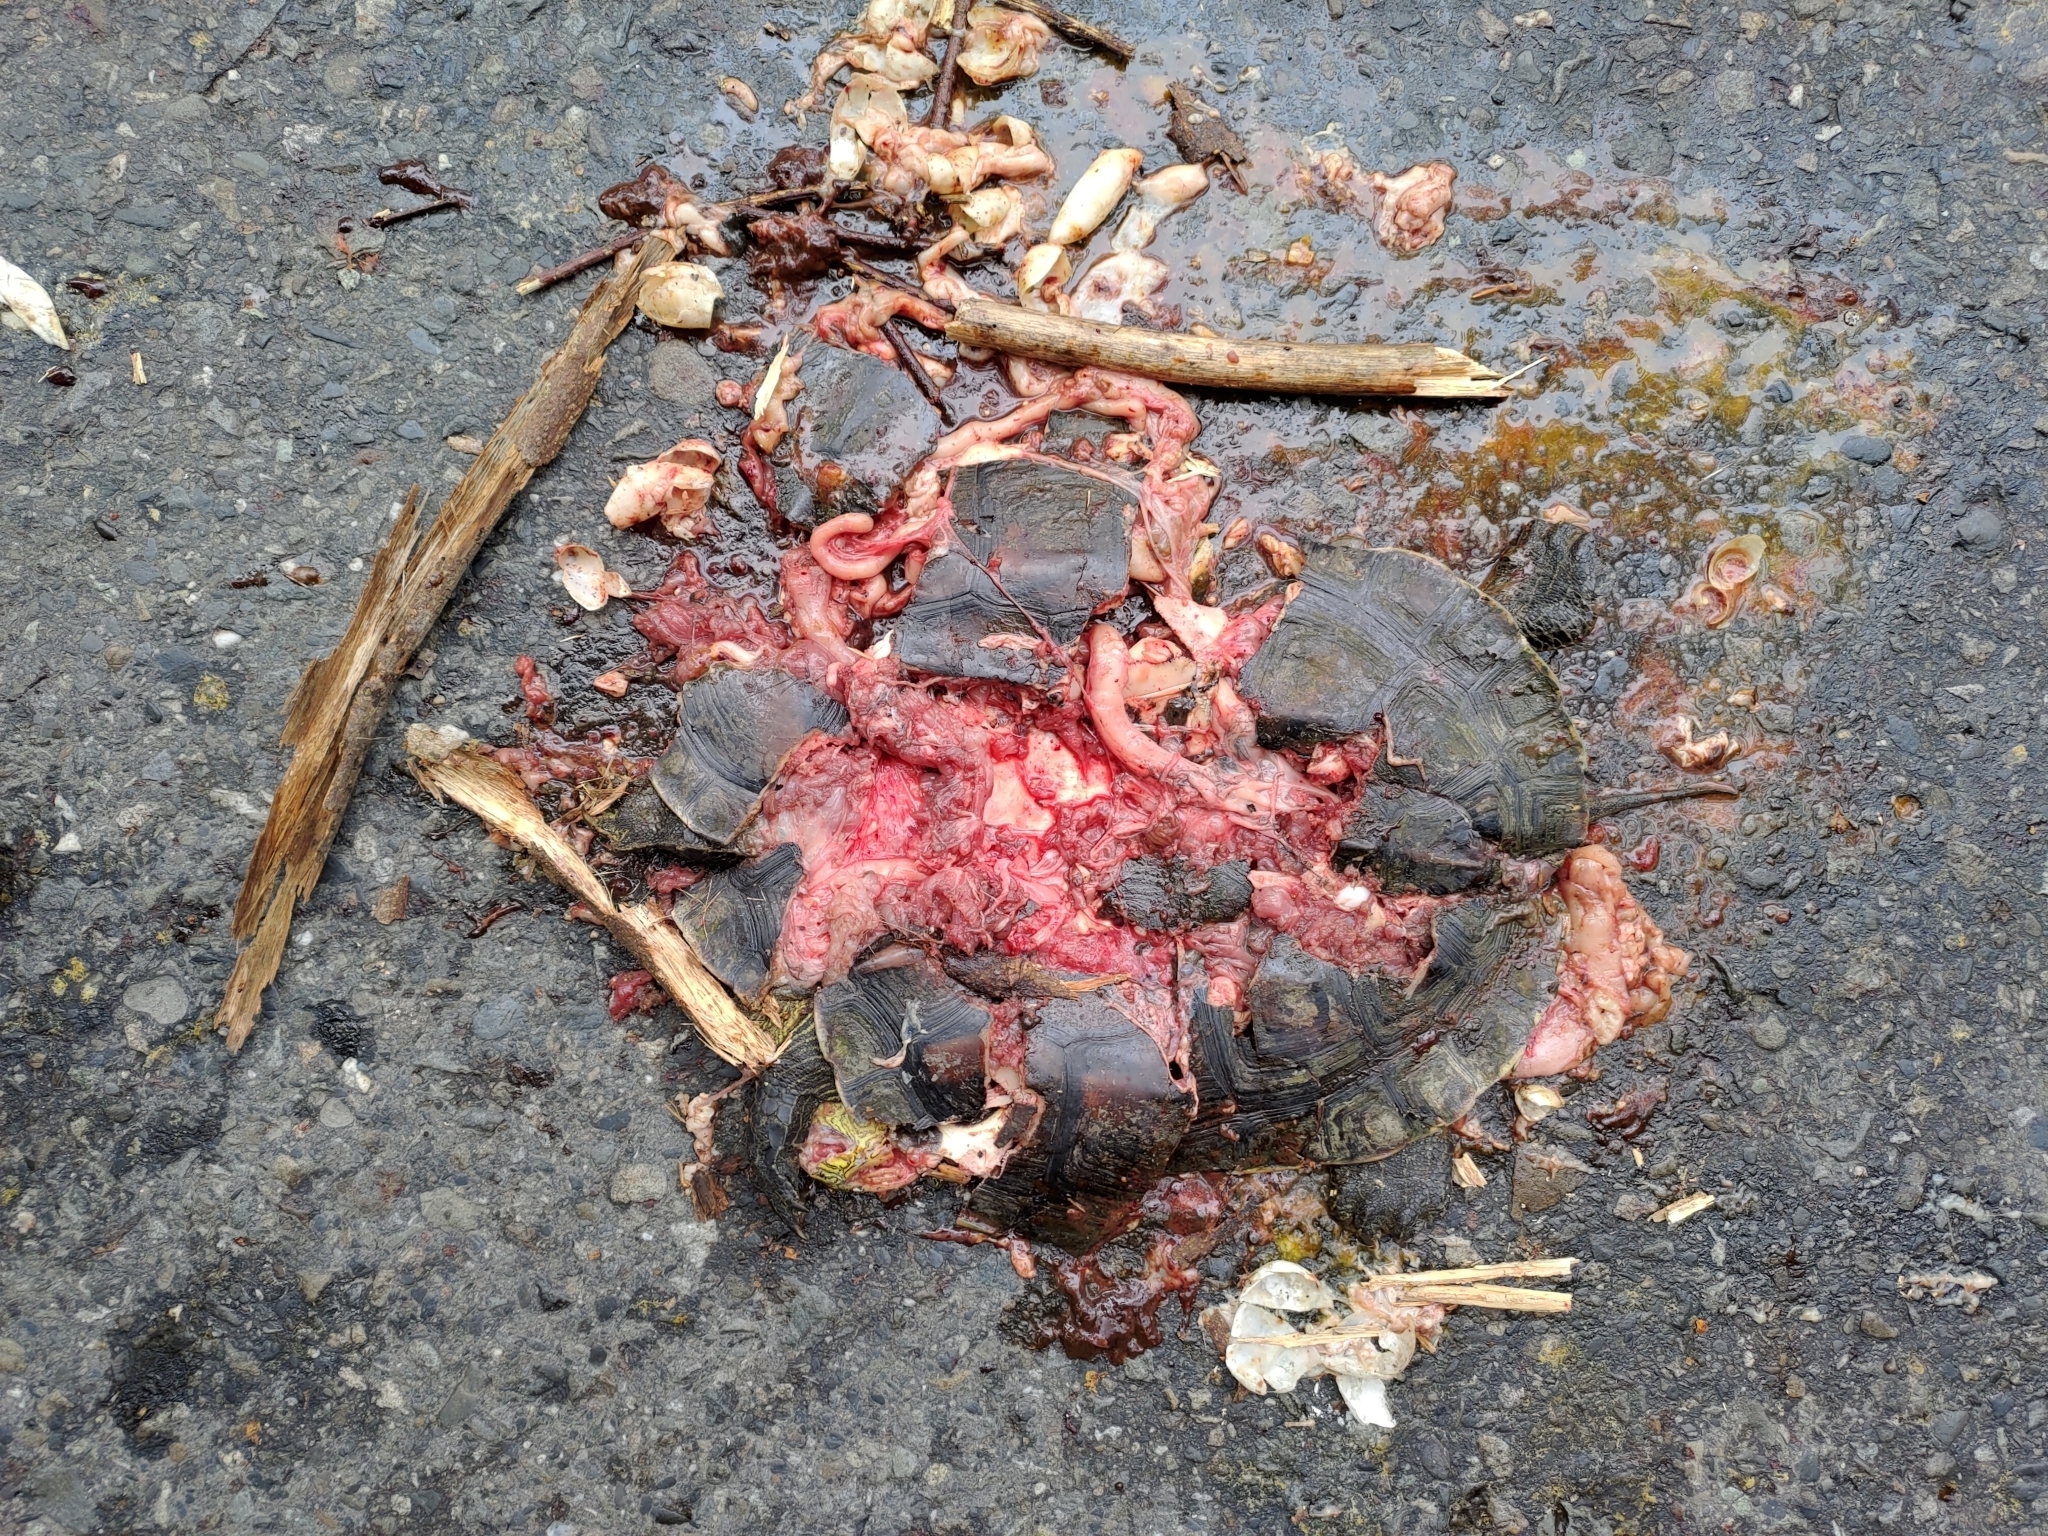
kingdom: Animalia
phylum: Chordata
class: Testudines
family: Geoemydidae
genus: Mauremys
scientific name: Mauremys sinensis
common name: Chinese stripe-necked turtle
